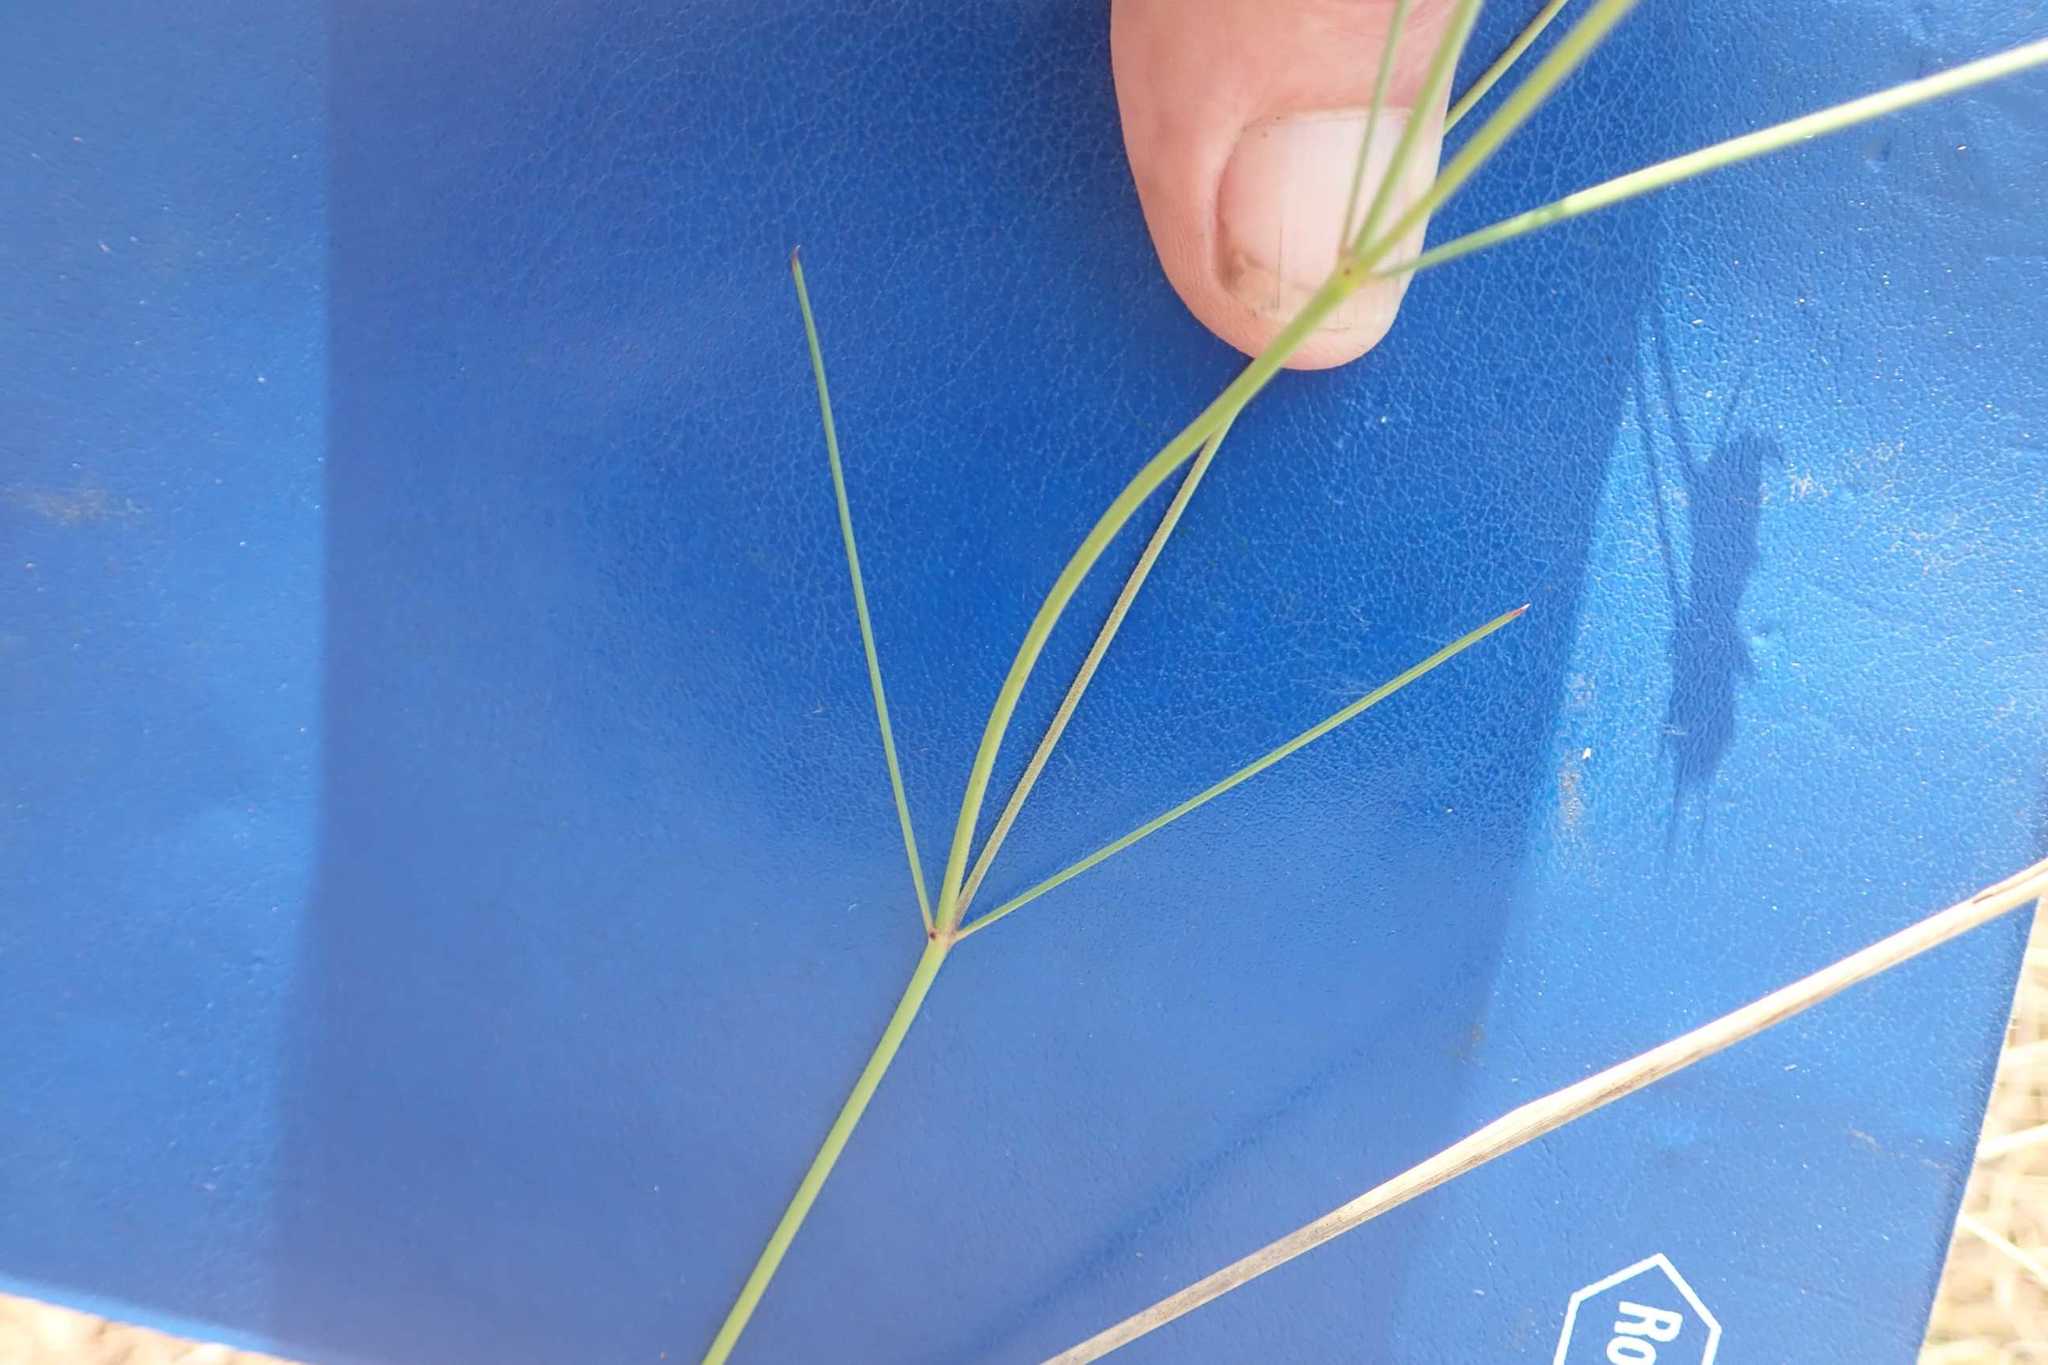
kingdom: Plantae
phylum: Tracheophyta
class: Magnoliopsida
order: Gentianales
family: Apocynaceae
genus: Asclepias
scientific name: Asclepias aurea
